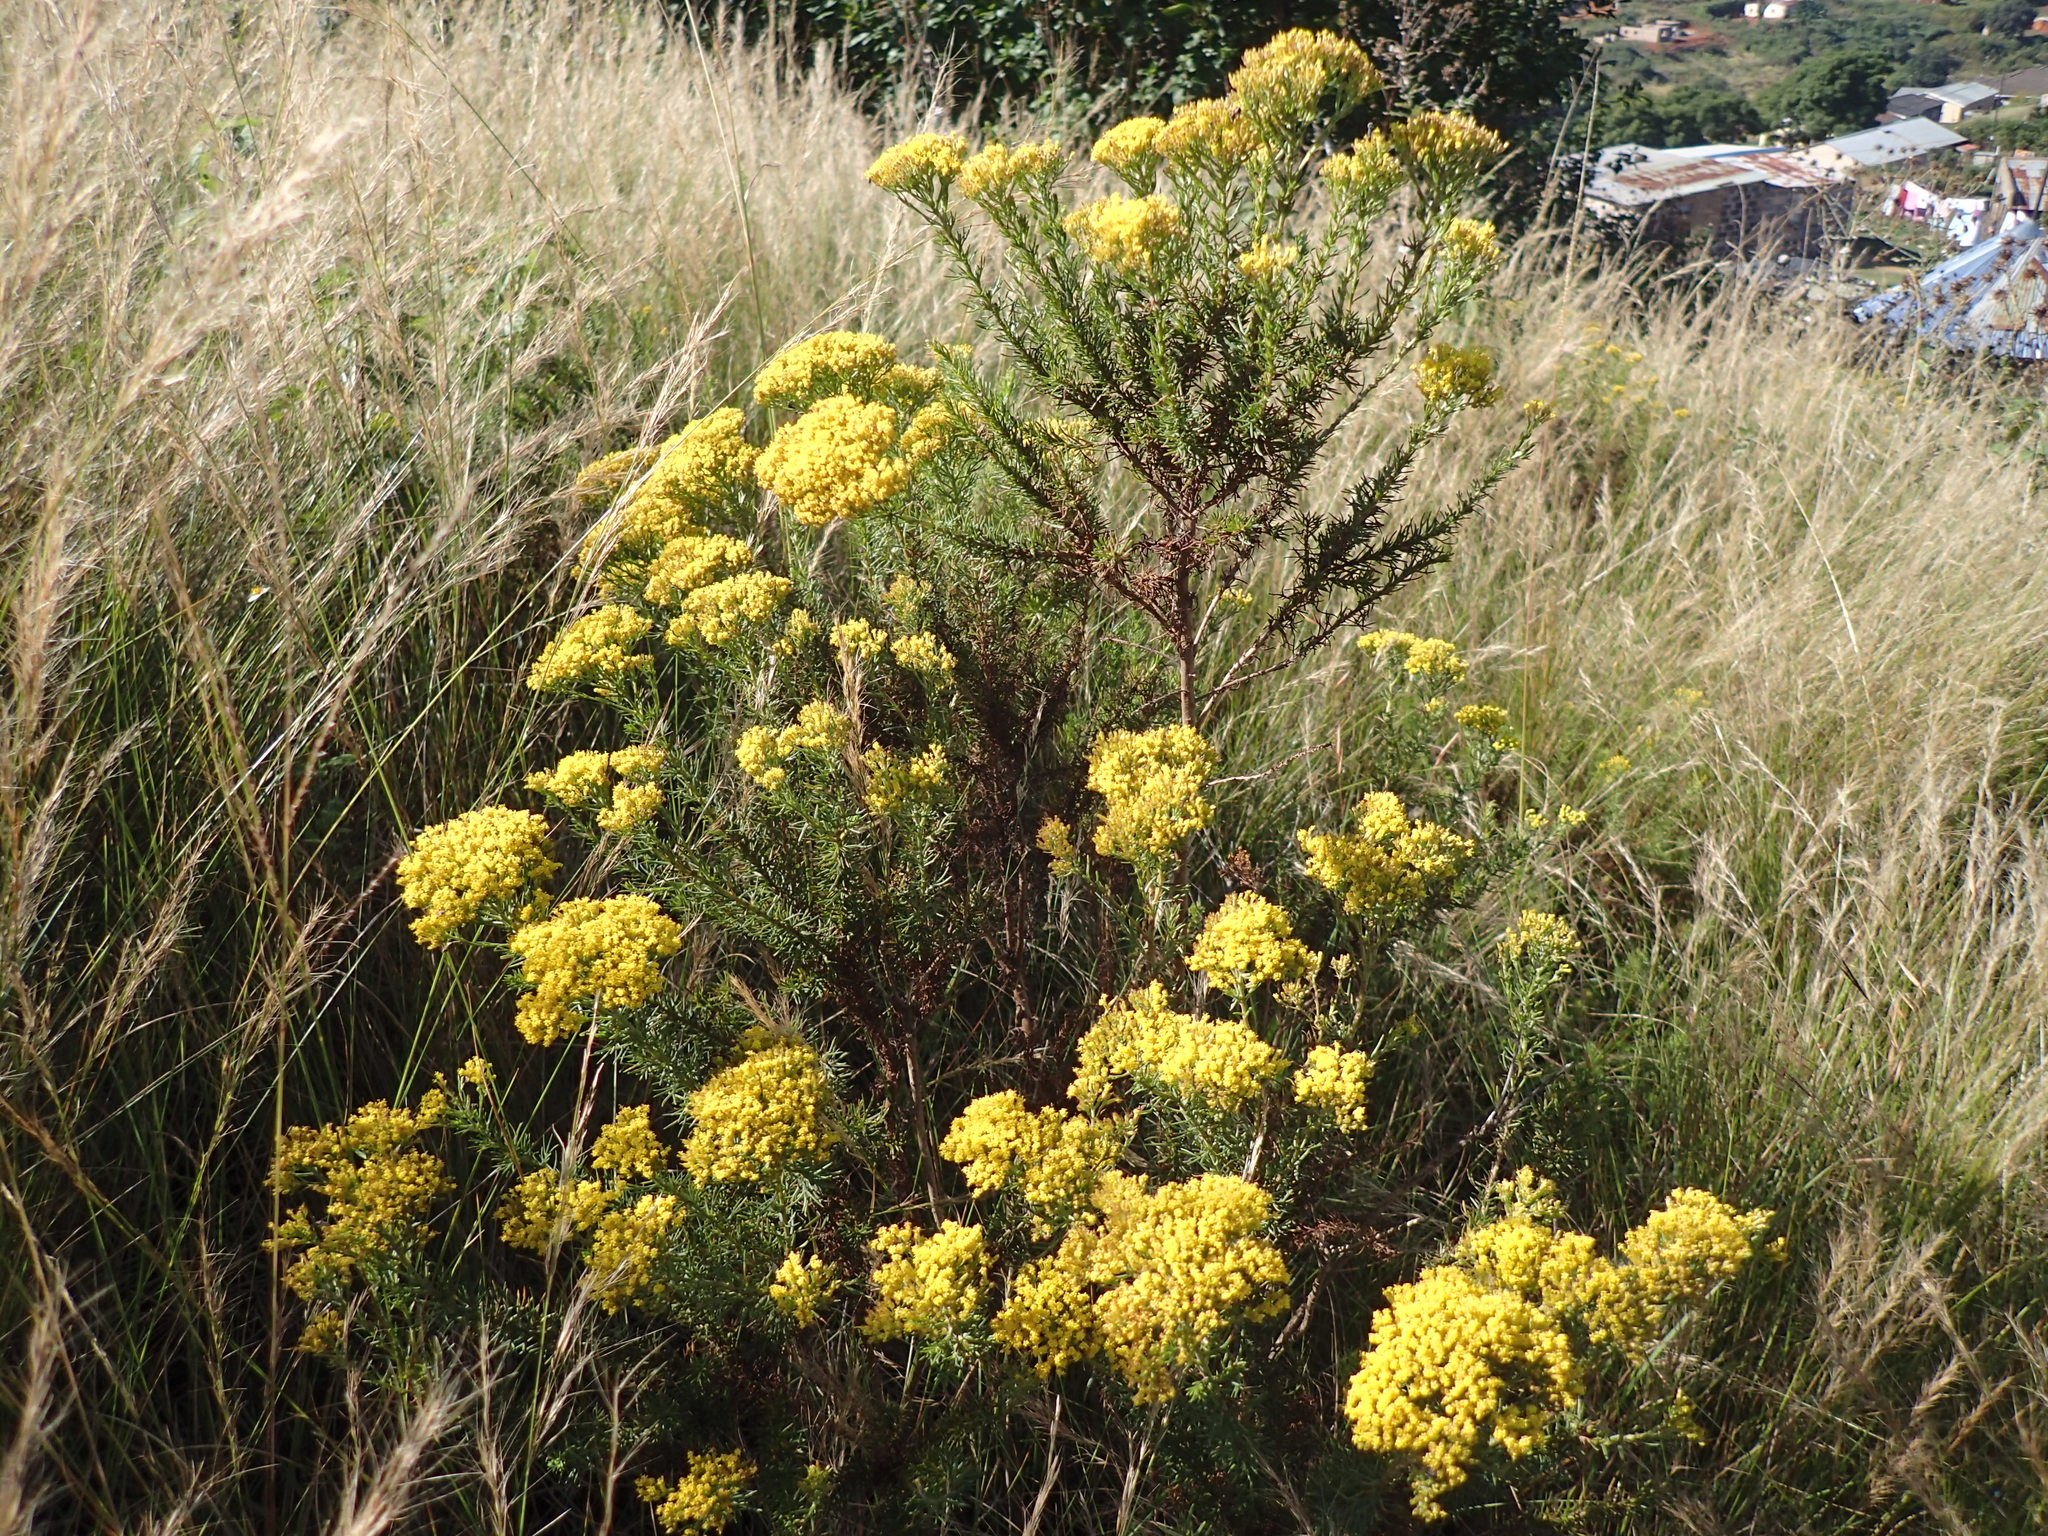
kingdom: Plantae
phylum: Tracheophyta
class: Magnoliopsida
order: Asterales
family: Asteraceae
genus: Phymaspermum
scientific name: Phymaspermum acerosum
